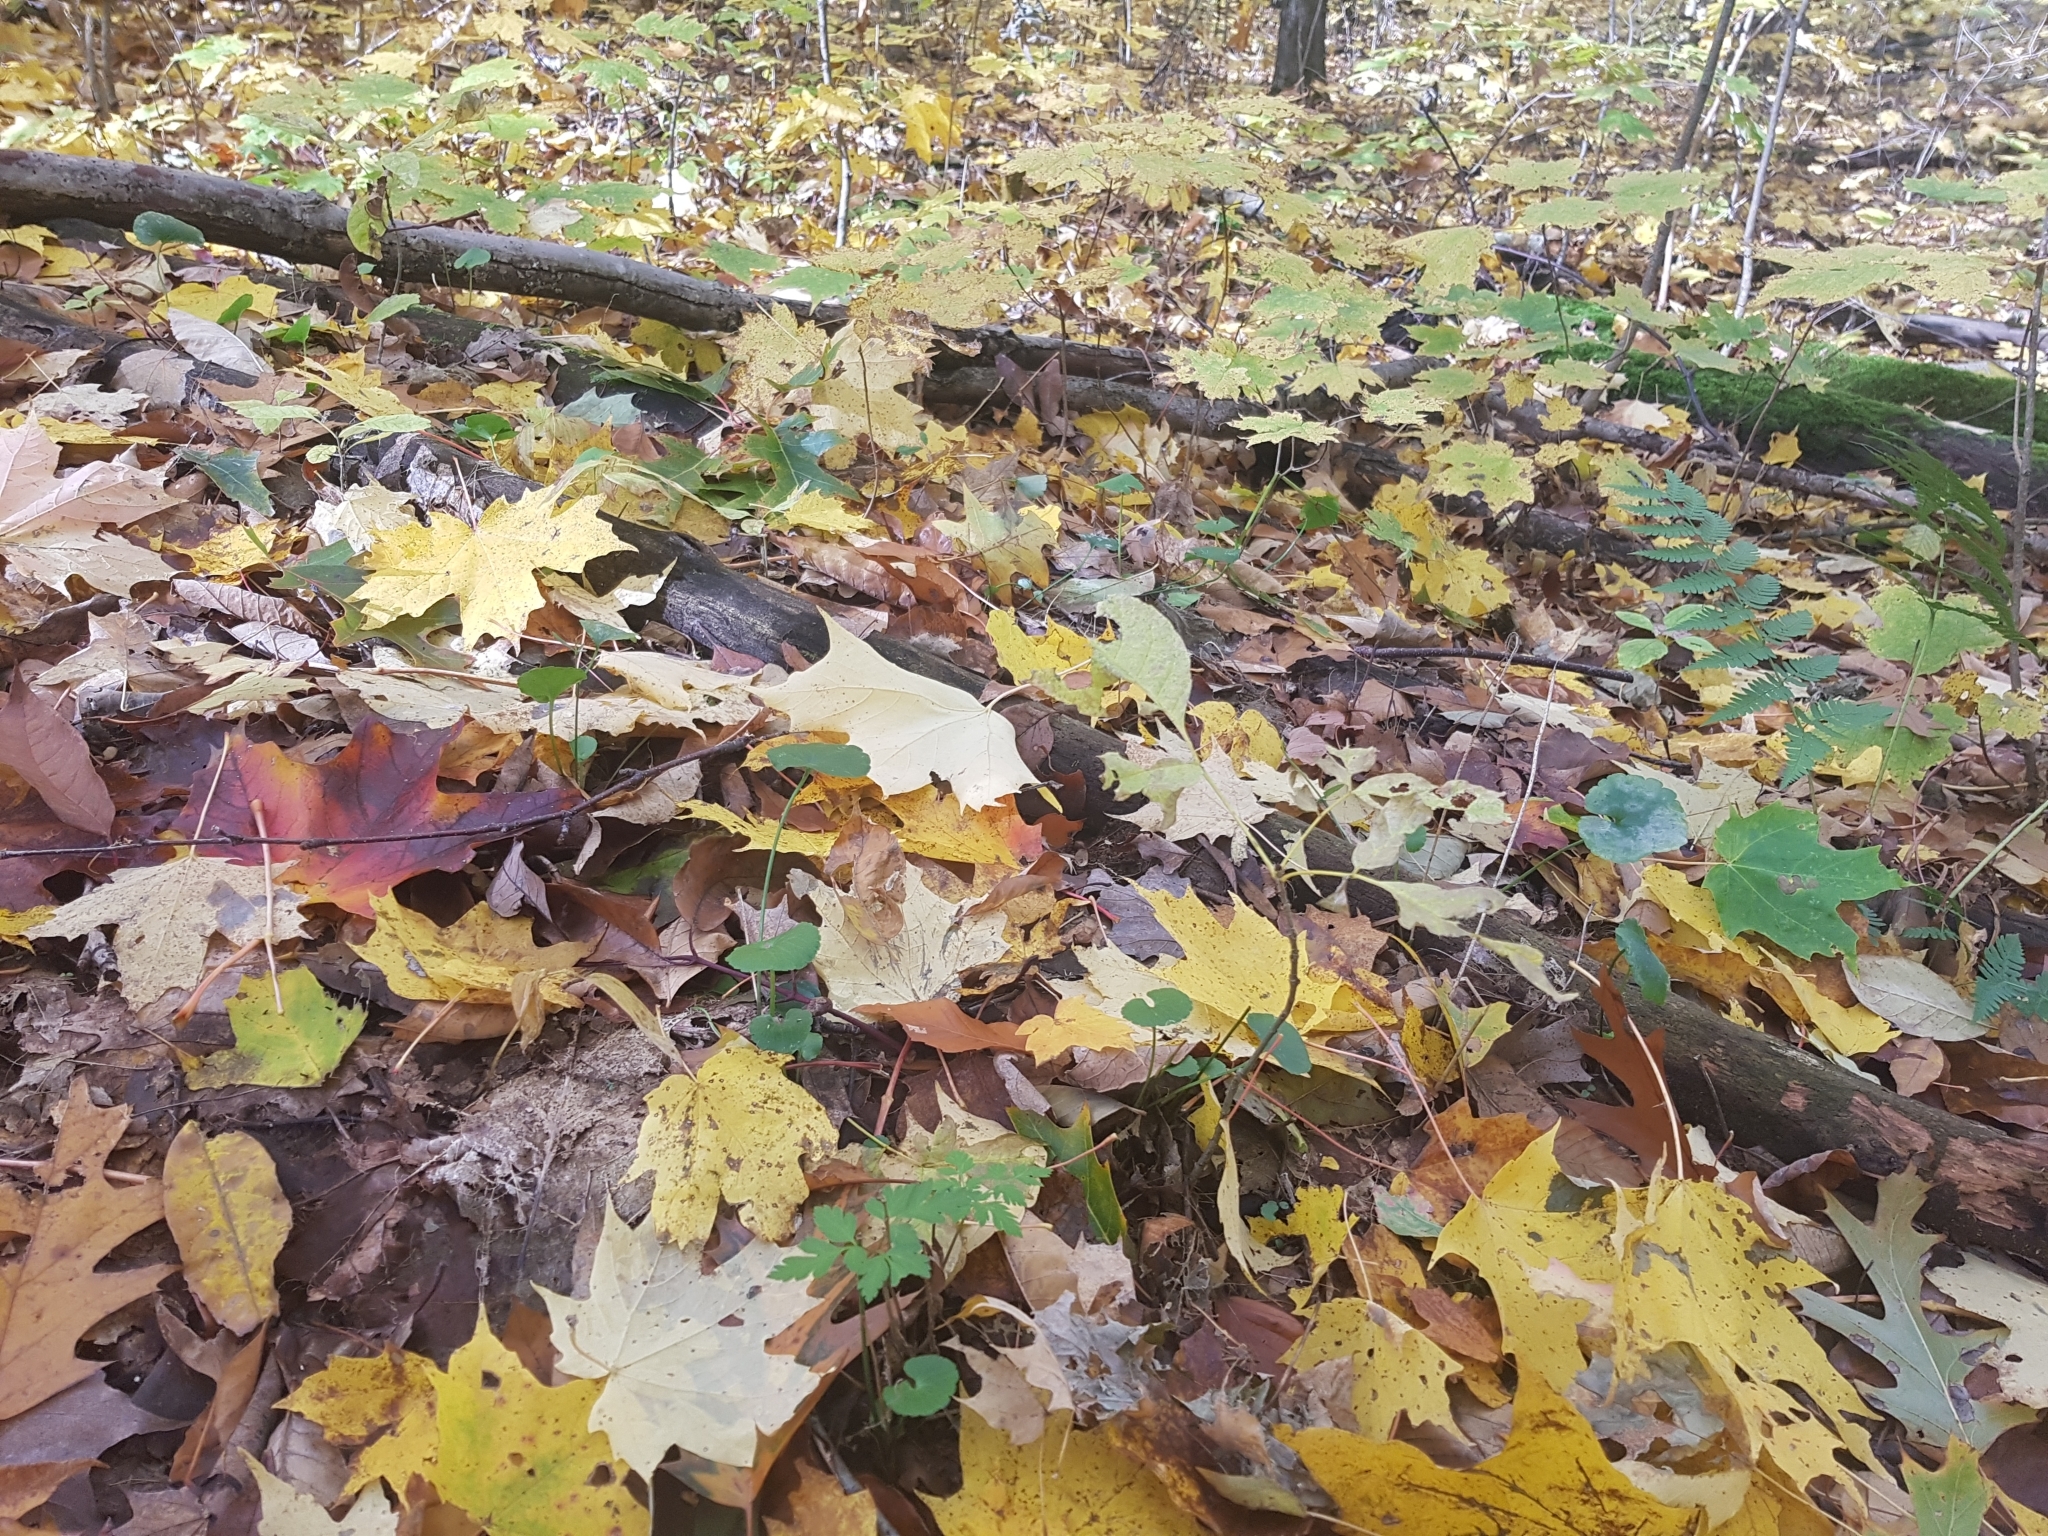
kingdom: Plantae
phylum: Tracheophyta
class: Magnoliopsida
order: Ranunculales
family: Ranunculaceae
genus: Ranunculus
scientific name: Ranunculus abortivus
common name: Early wood buttercup
